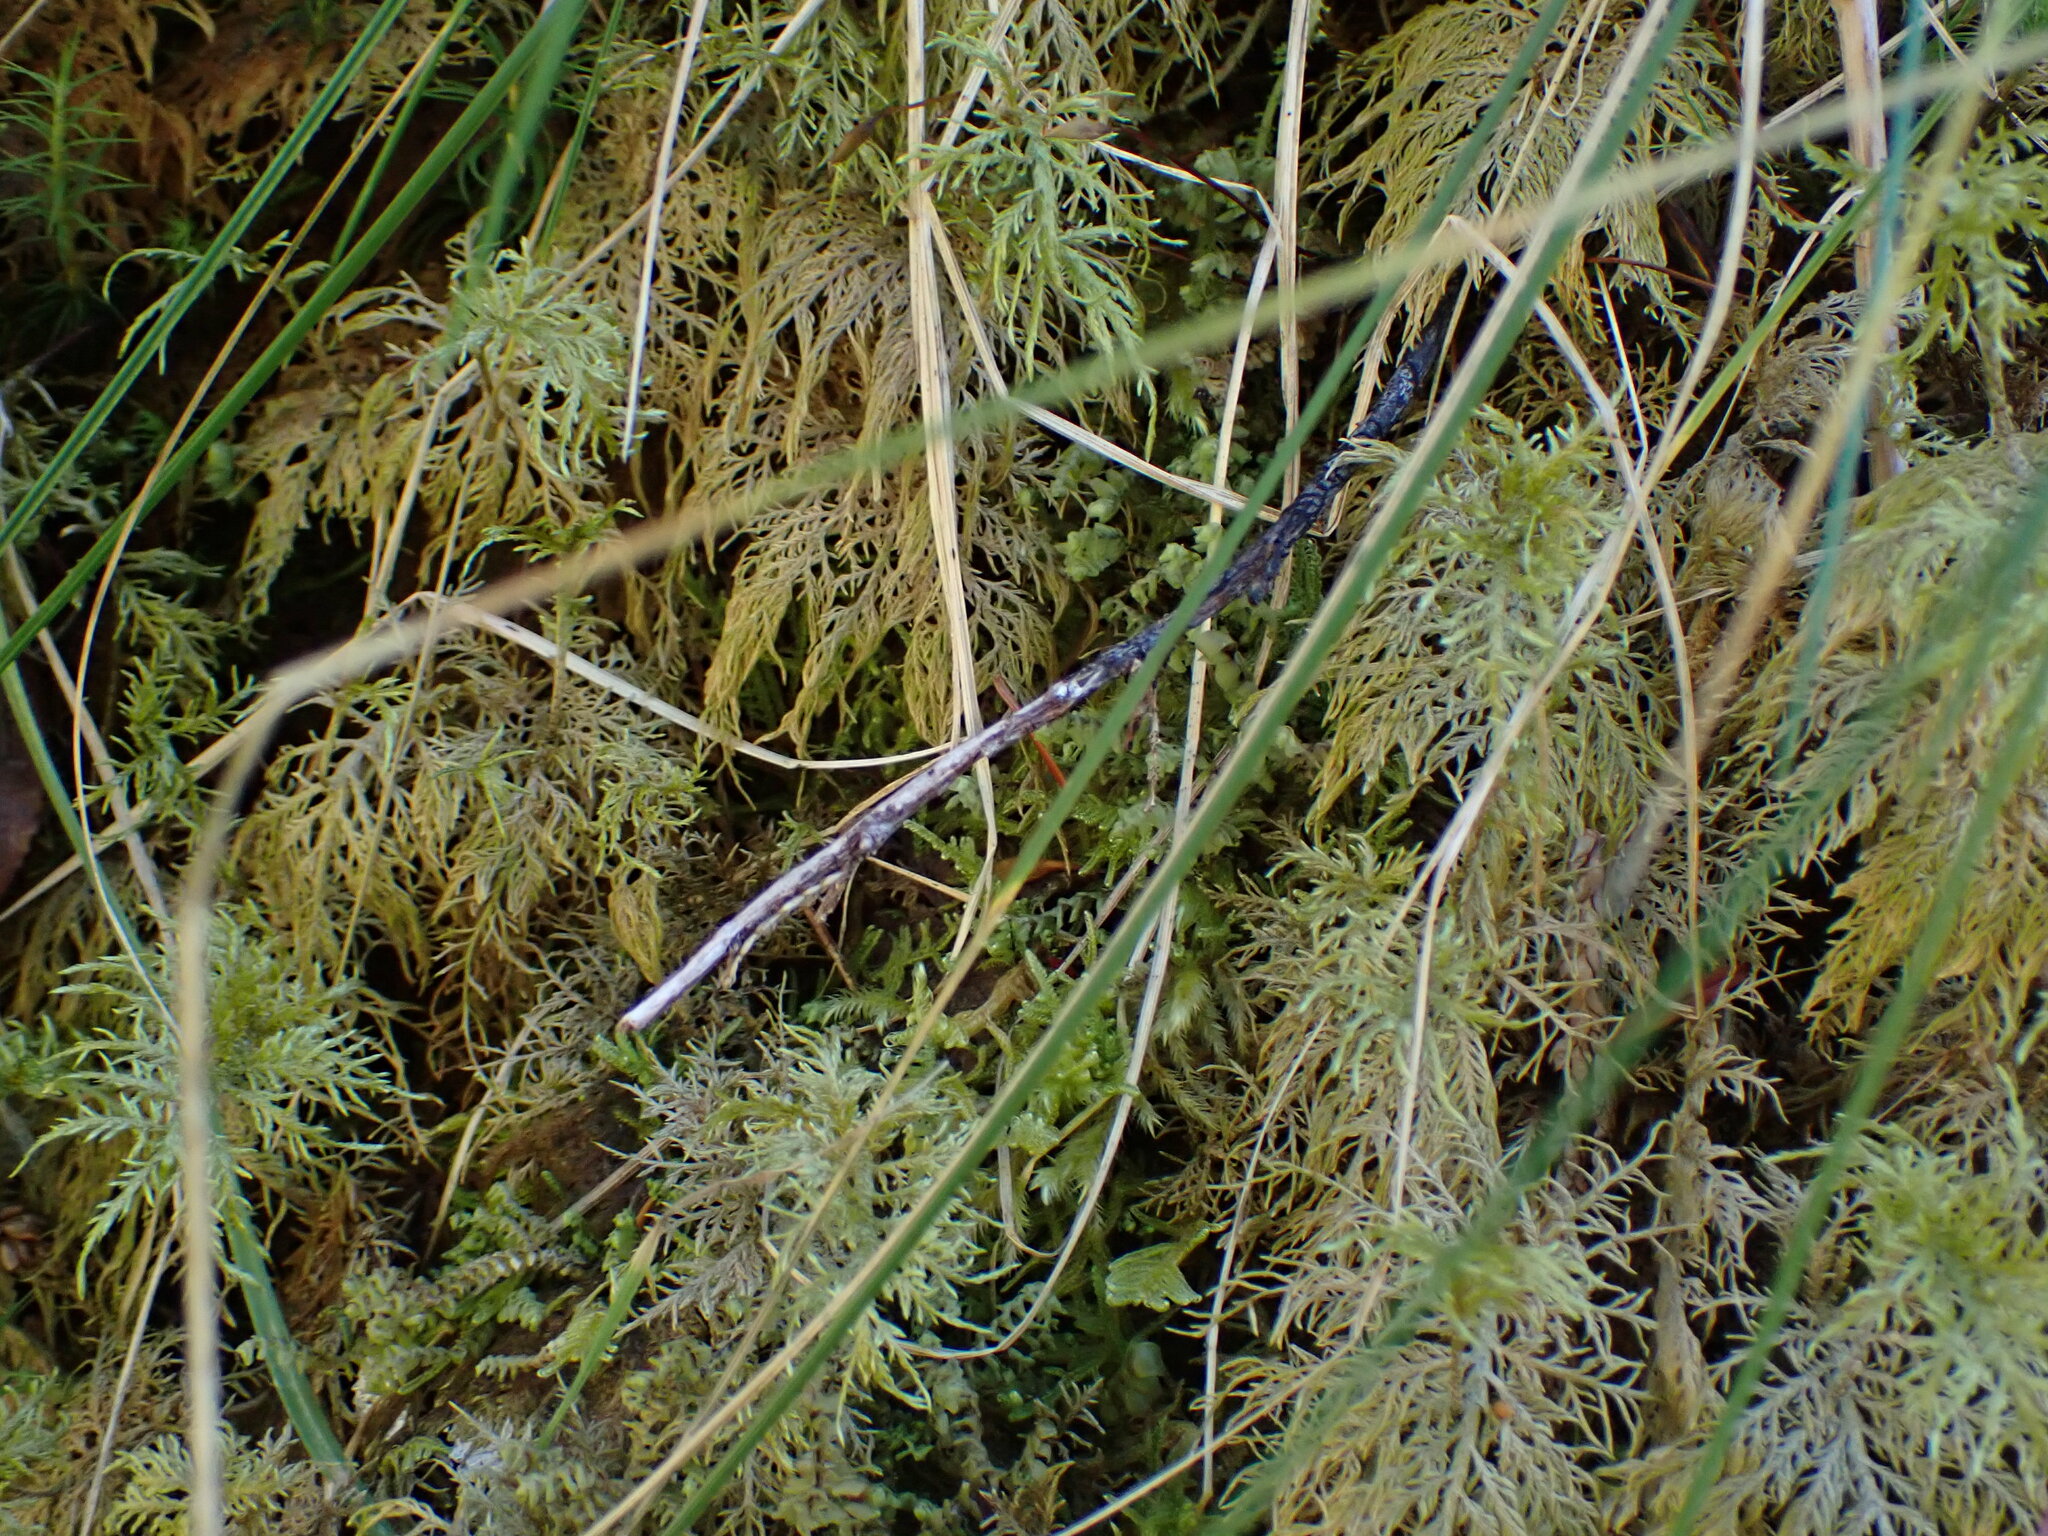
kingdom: Plantae
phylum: Bryophyta
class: Bryopsida
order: Hypnales
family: Hylocomiaceae
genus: Hylocomium
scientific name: Hylocomium splendens
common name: Stairstep moss
